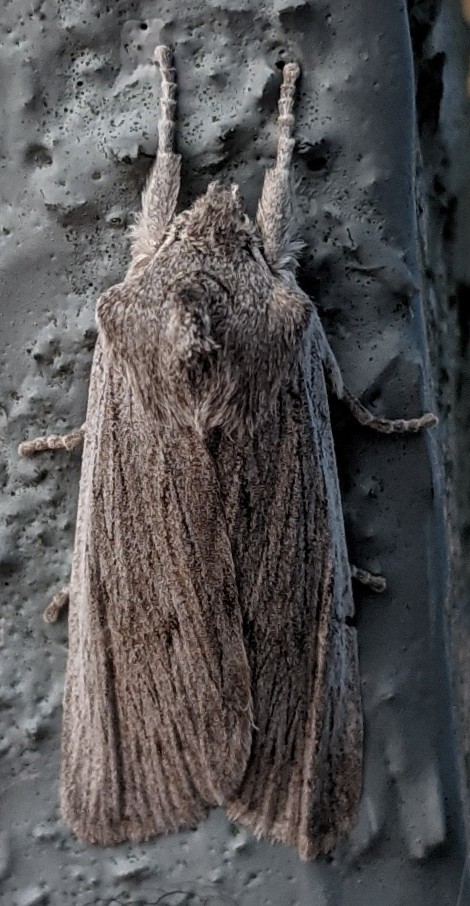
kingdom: Animalia
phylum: Arthropoda
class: Insecta
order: Lepidoptera
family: Noctuidae
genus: Lithophane
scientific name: Lithophane fagina
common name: Hoary pinion moth
